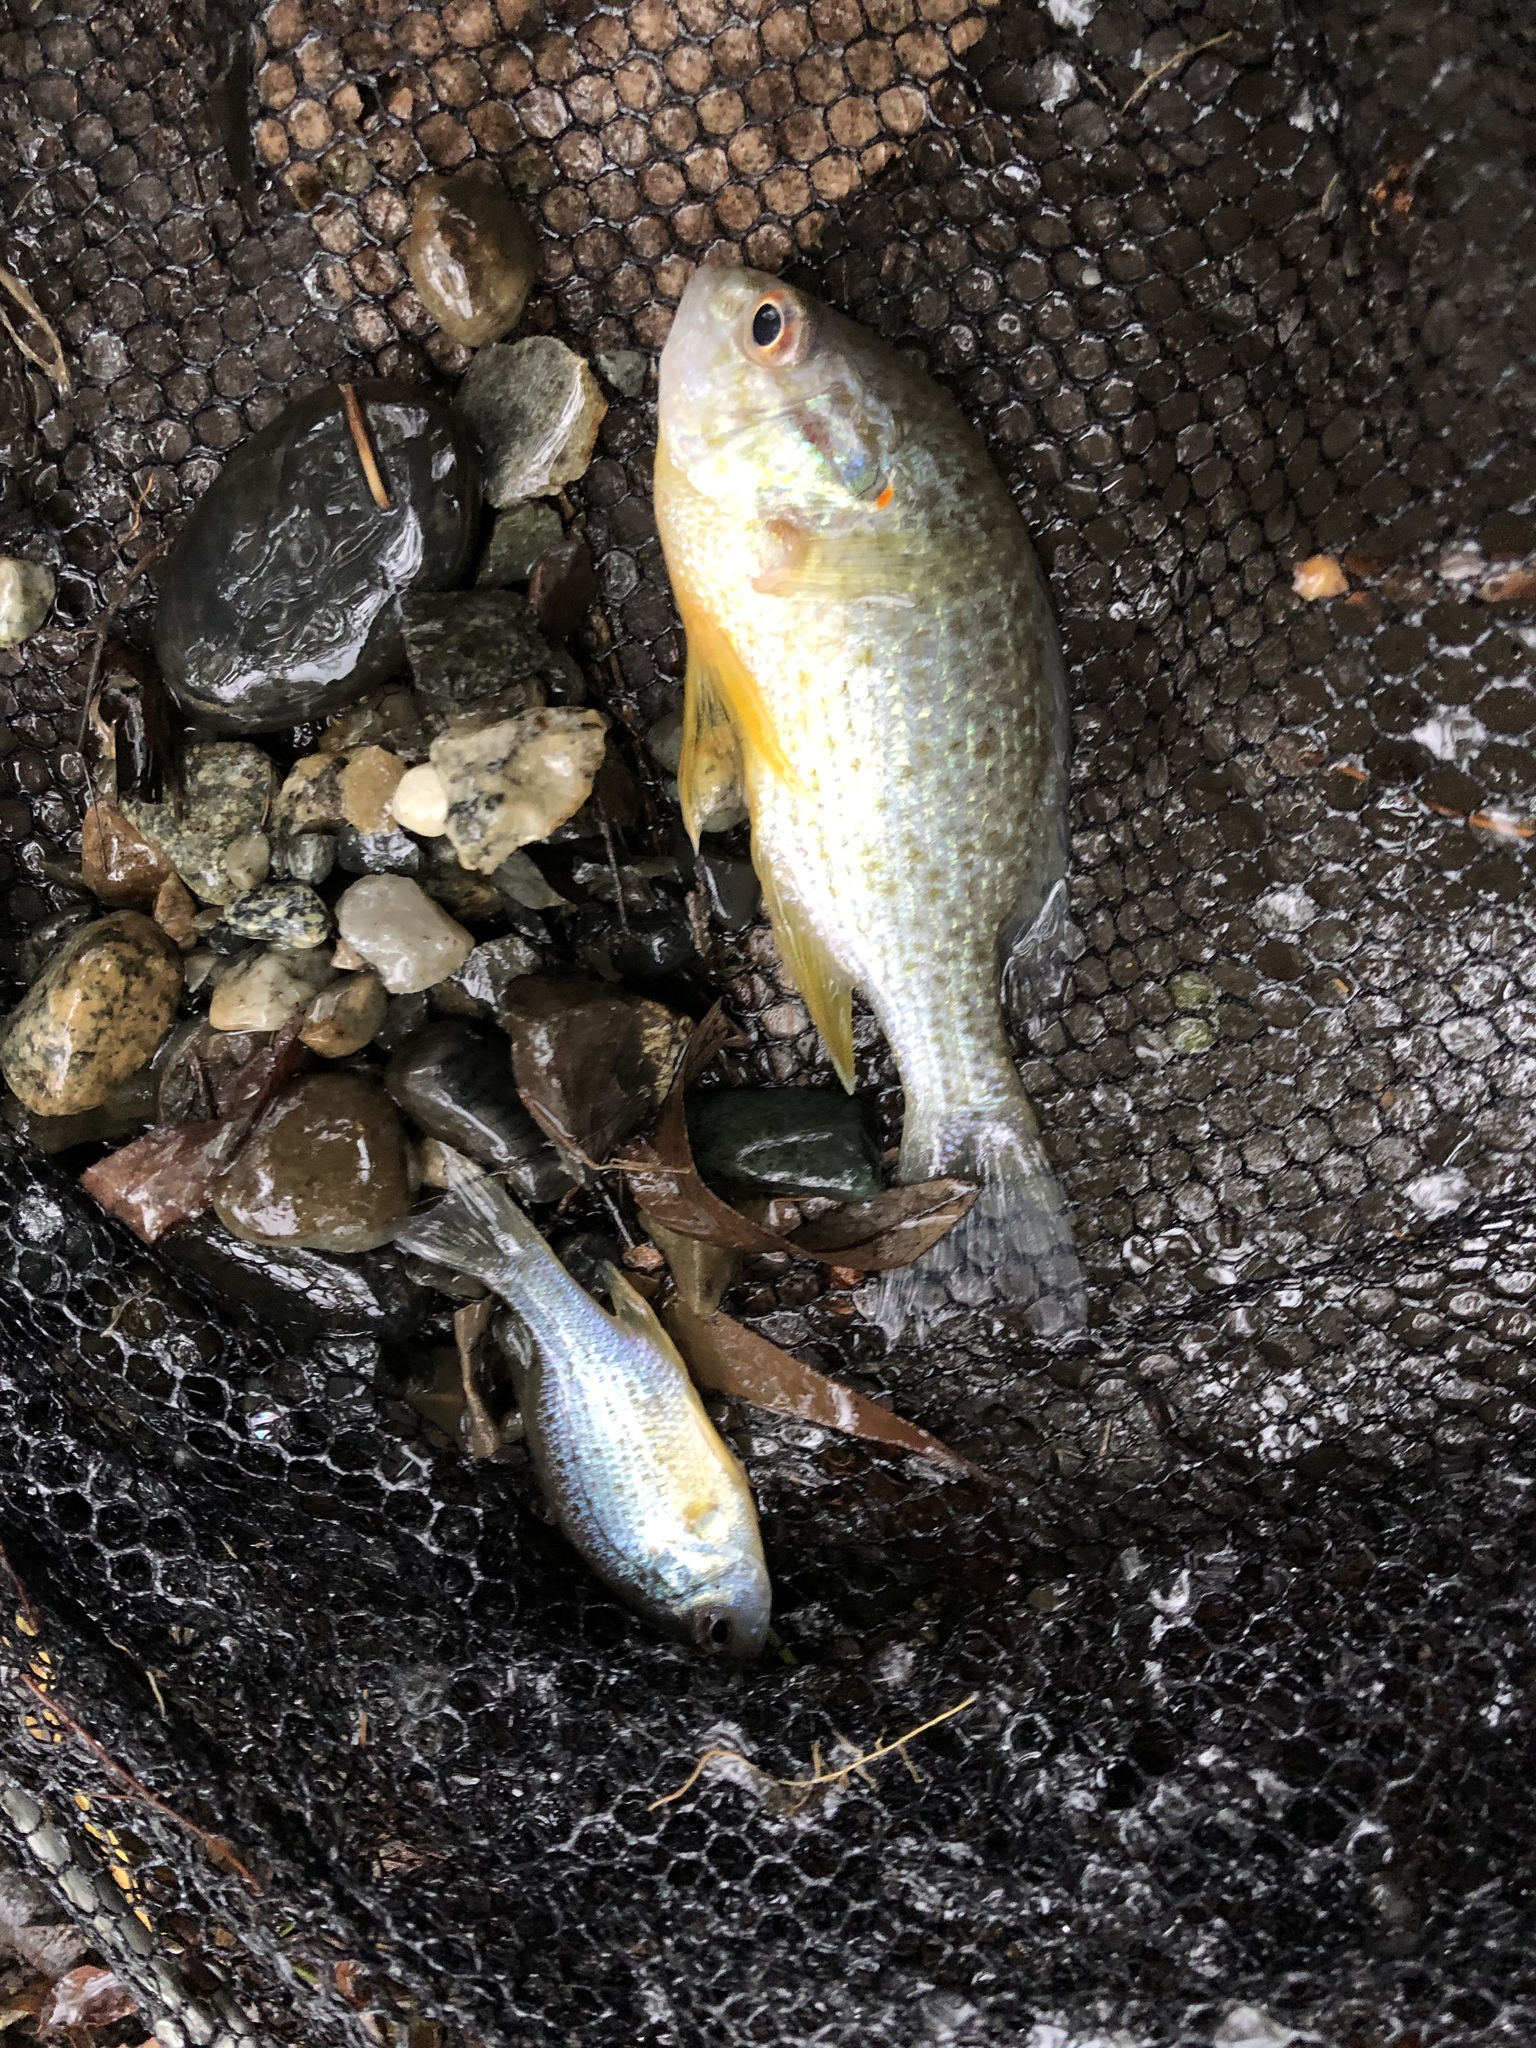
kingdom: Animalia
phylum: Chordata
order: Perciformes
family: Centrarchidae
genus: Lepomis
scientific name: Lepomis gibbosus
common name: Pumpkinseed
